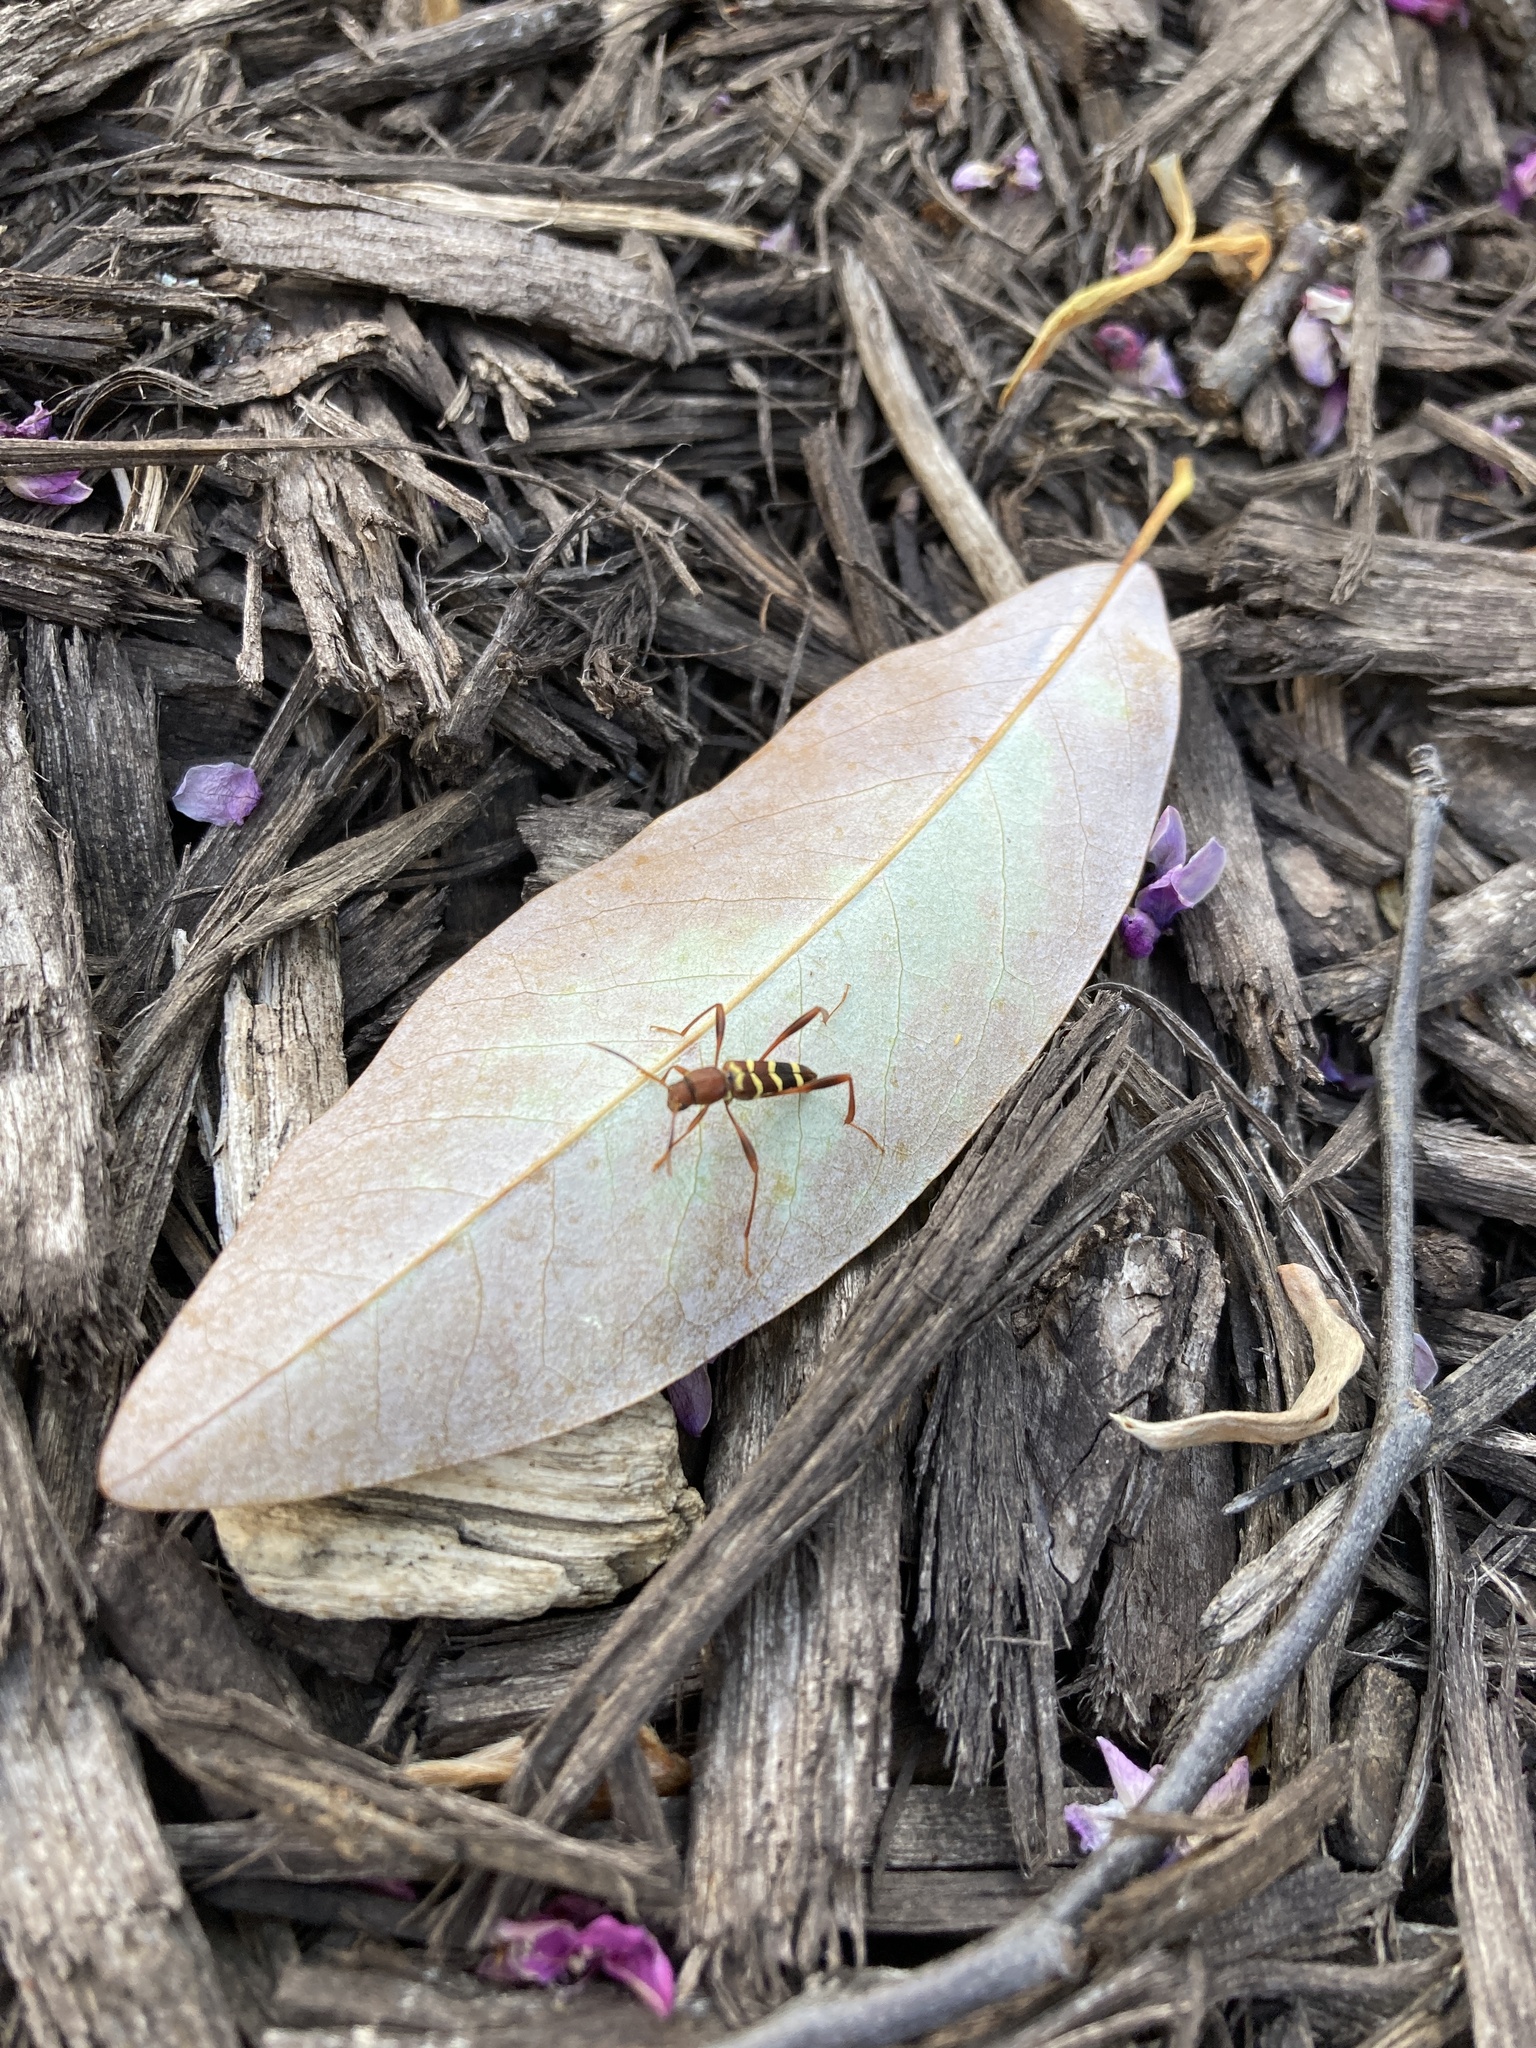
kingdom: Animalia
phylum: Arthropoda
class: Insecta
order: Coleoptera
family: Cerambycidae
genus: Neoclytus
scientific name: Neoclytus acuminatus
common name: Read-headed ash borer
